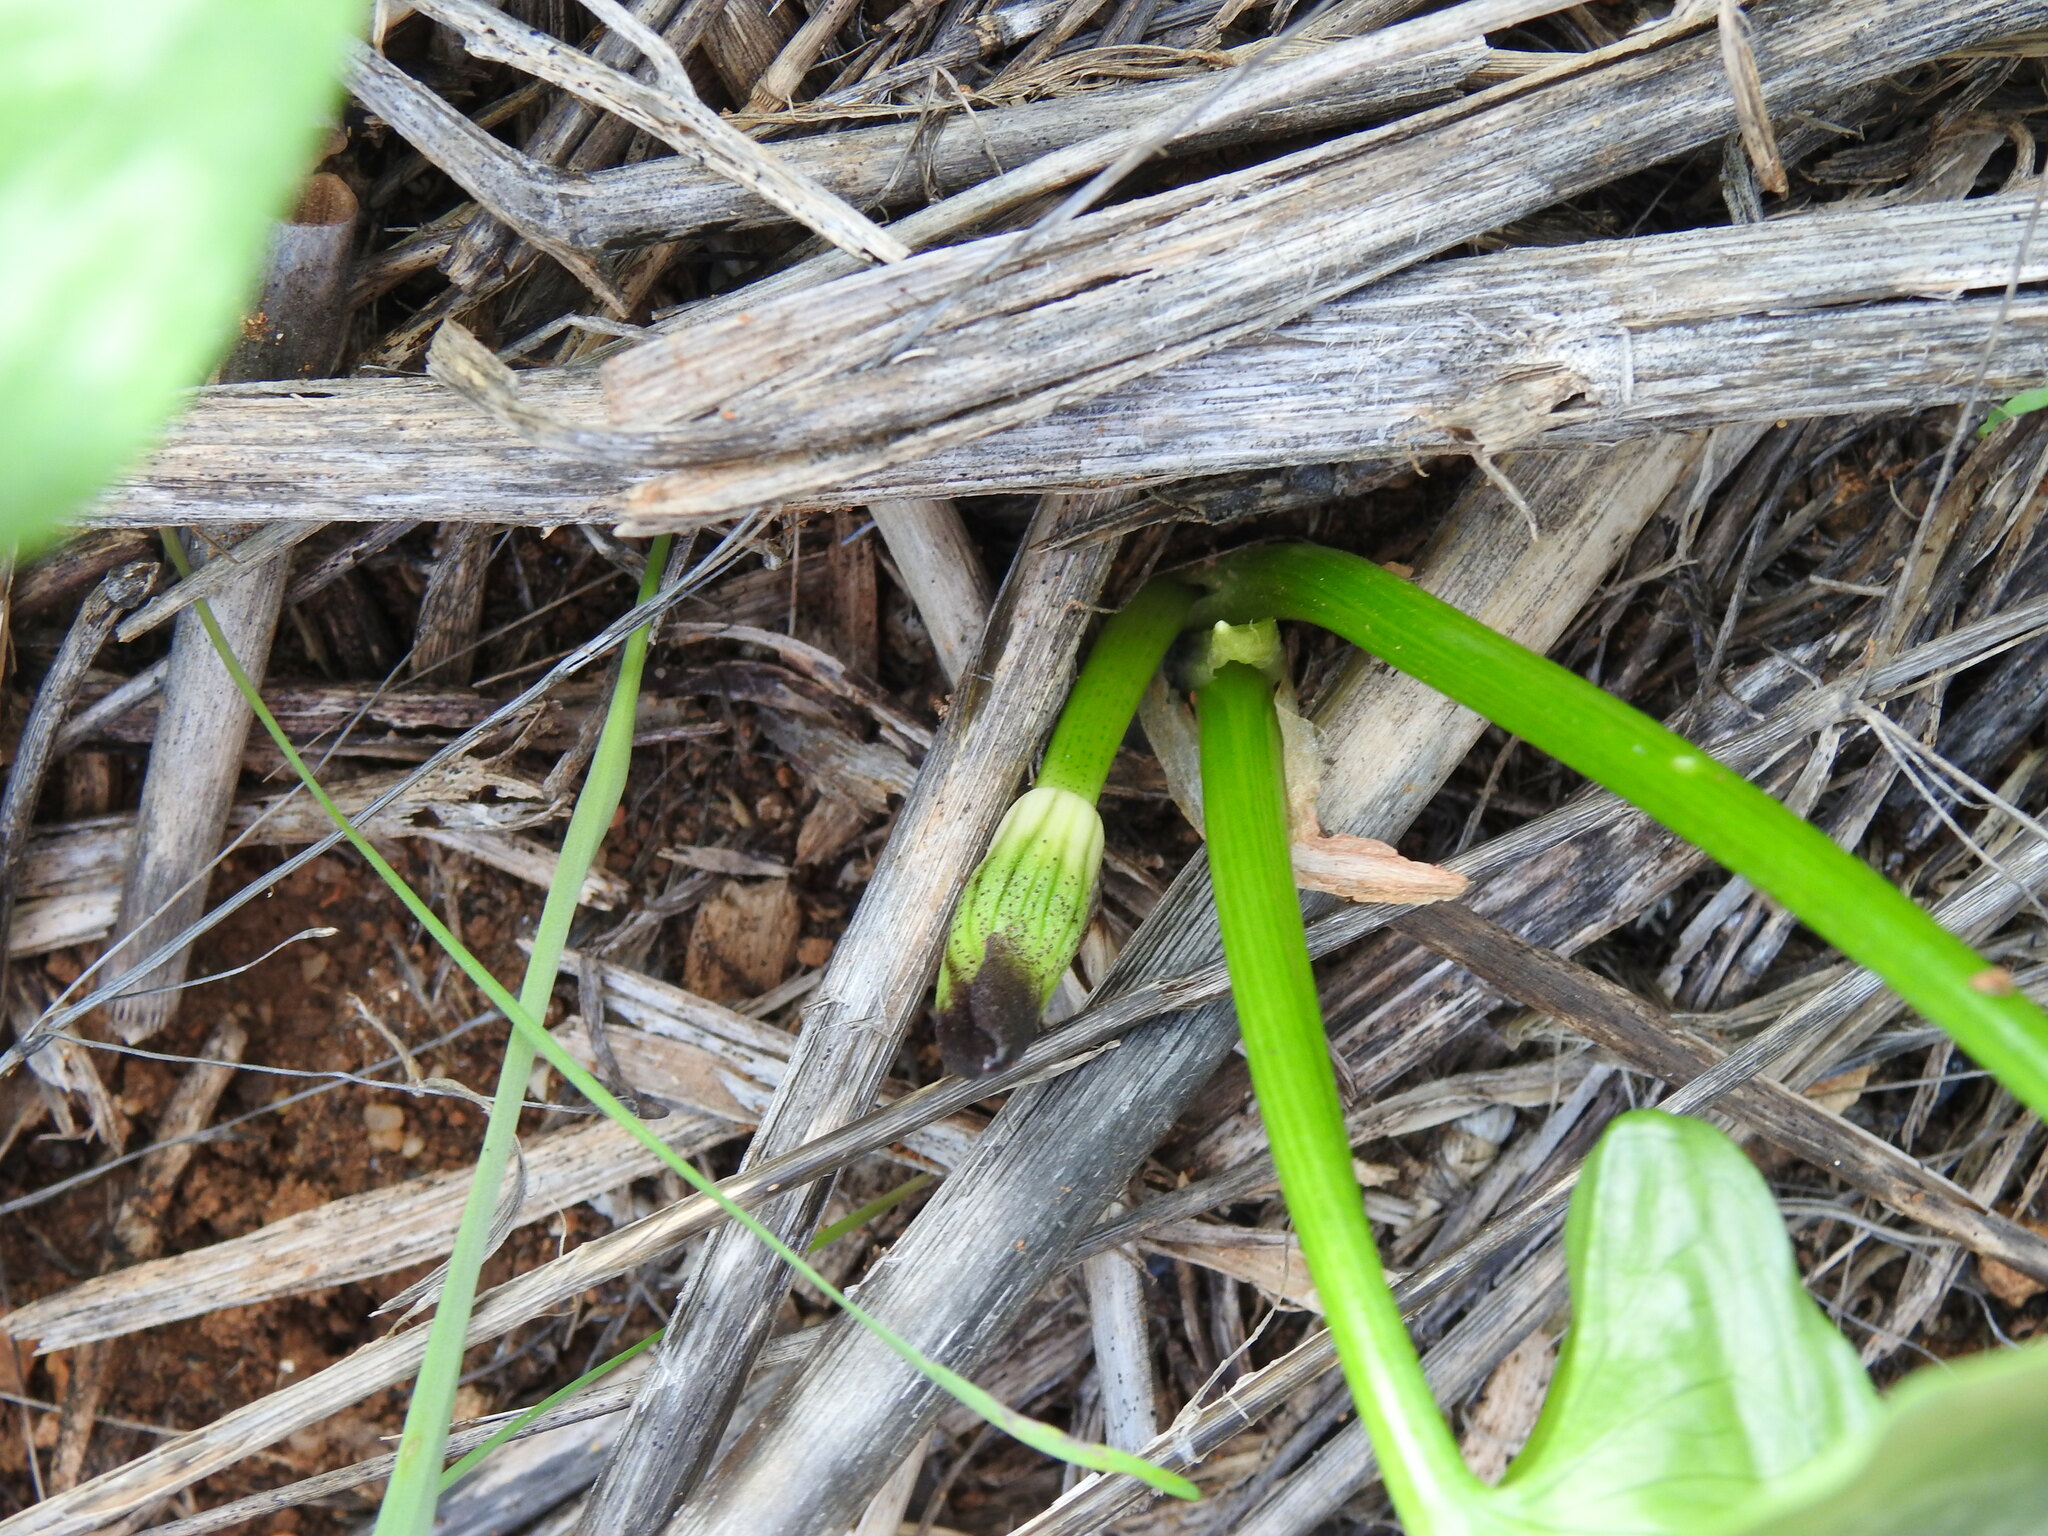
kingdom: Plantae
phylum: Tracheophyta
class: Liliopsida
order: Alismatales
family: Araceae
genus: Arisarum
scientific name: Arisarum simorrhinum
